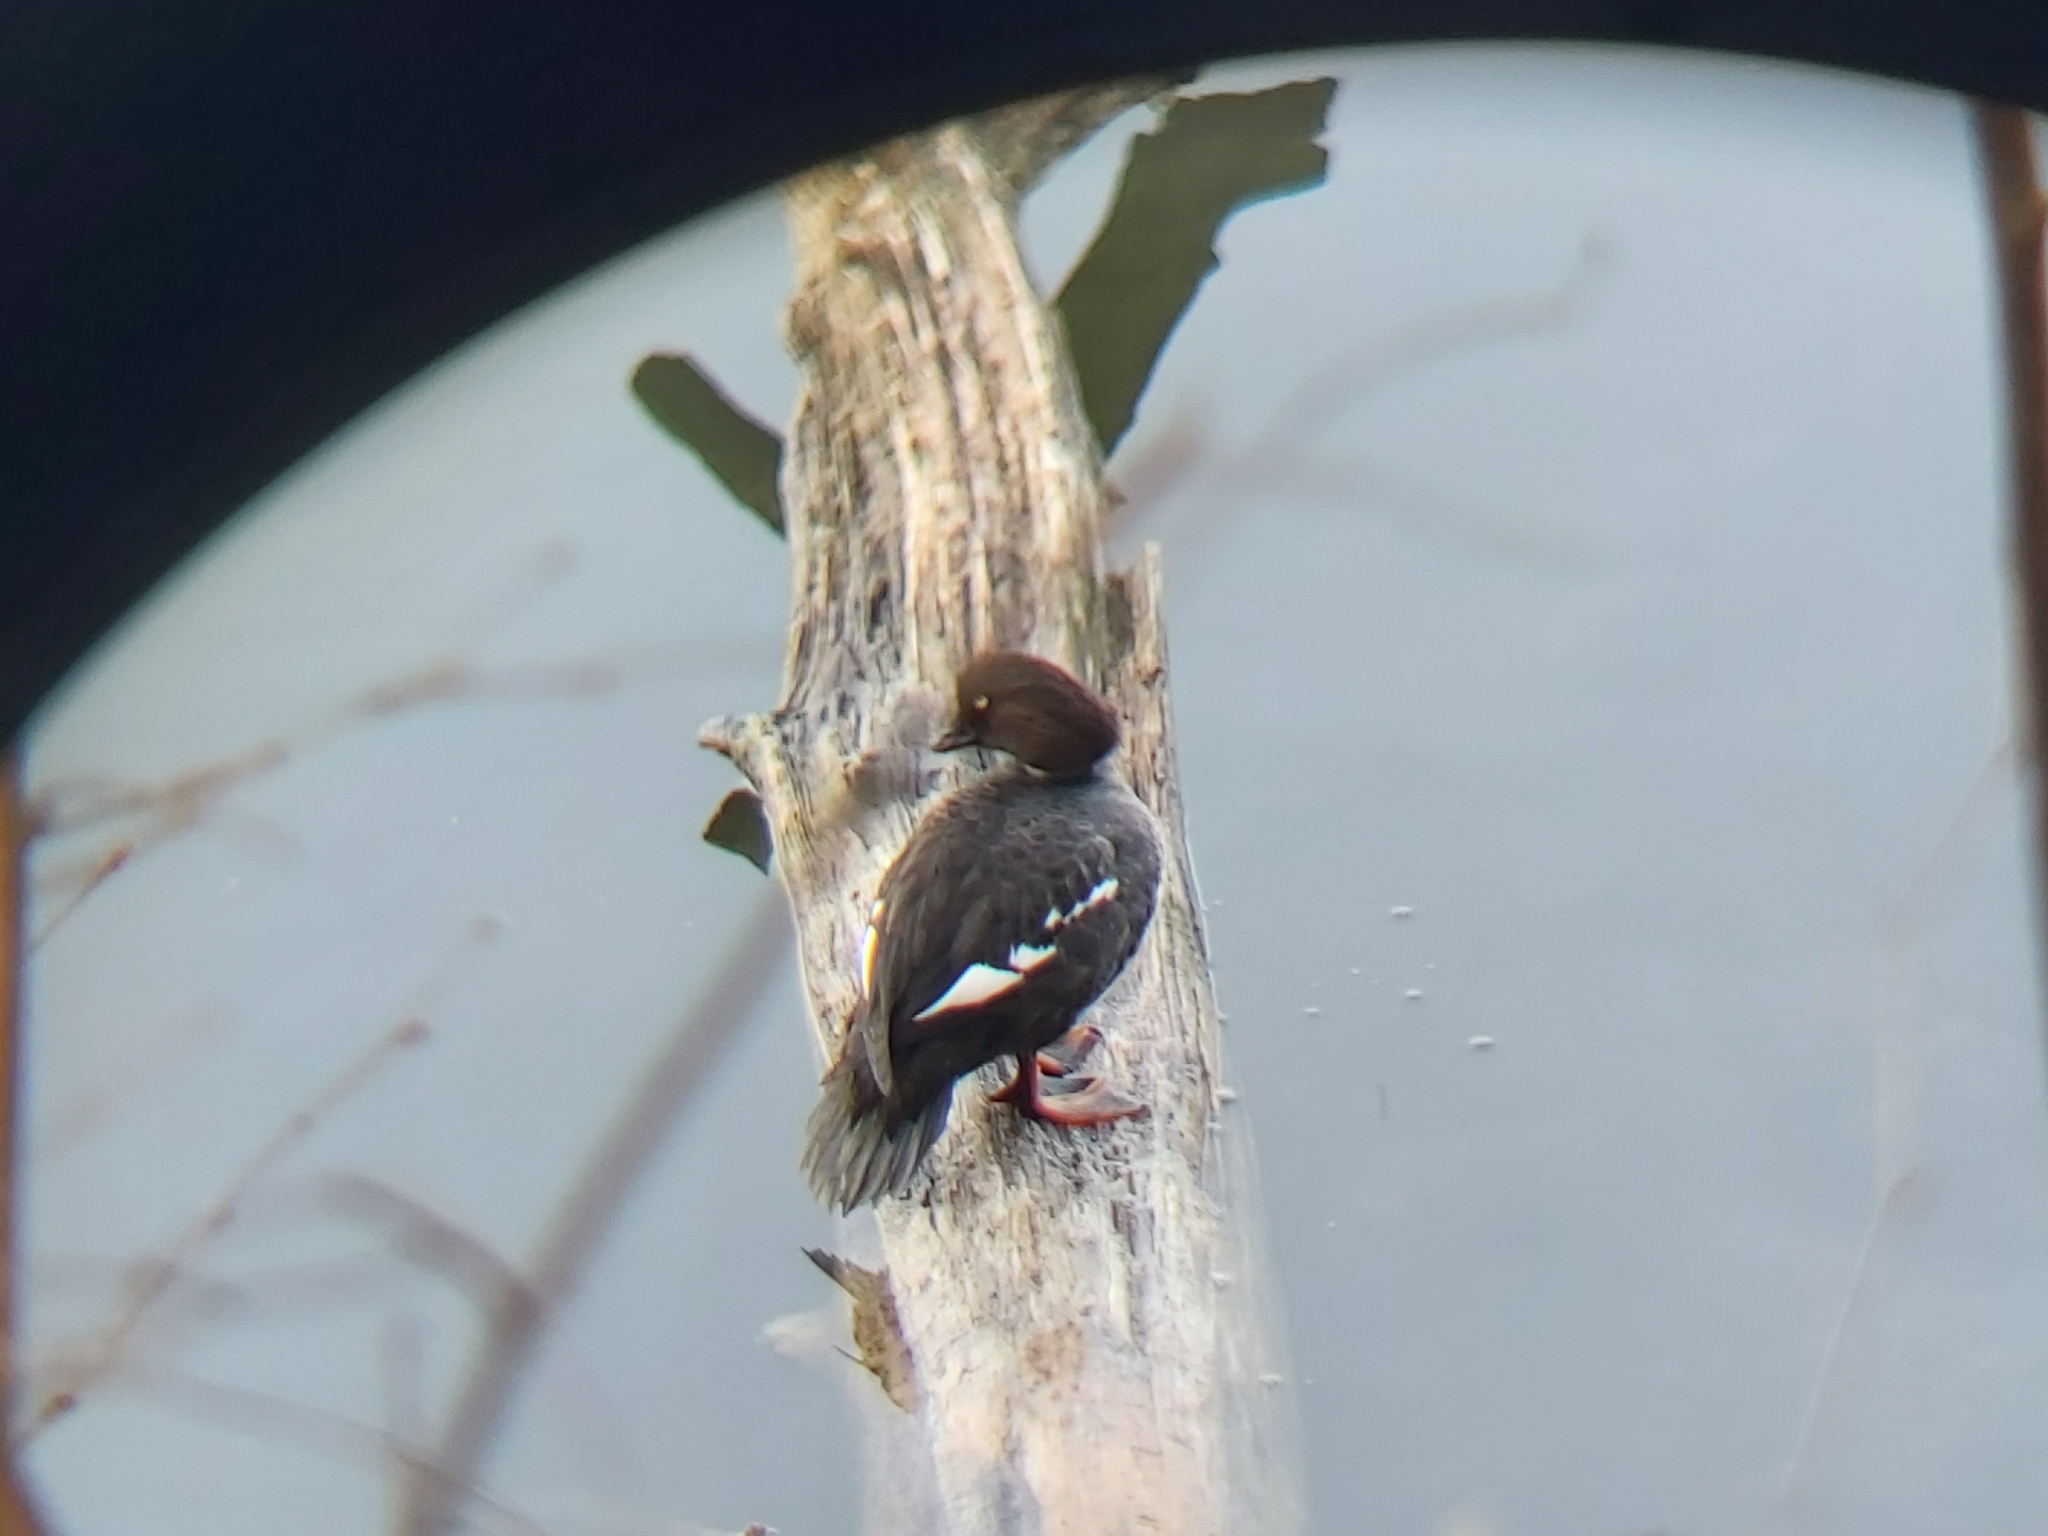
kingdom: Animalia
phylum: Chordata
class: Aves
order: Anseriformes
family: Anatidae
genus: Bucephala
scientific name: Bucephala clangula
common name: Common goldeneye
